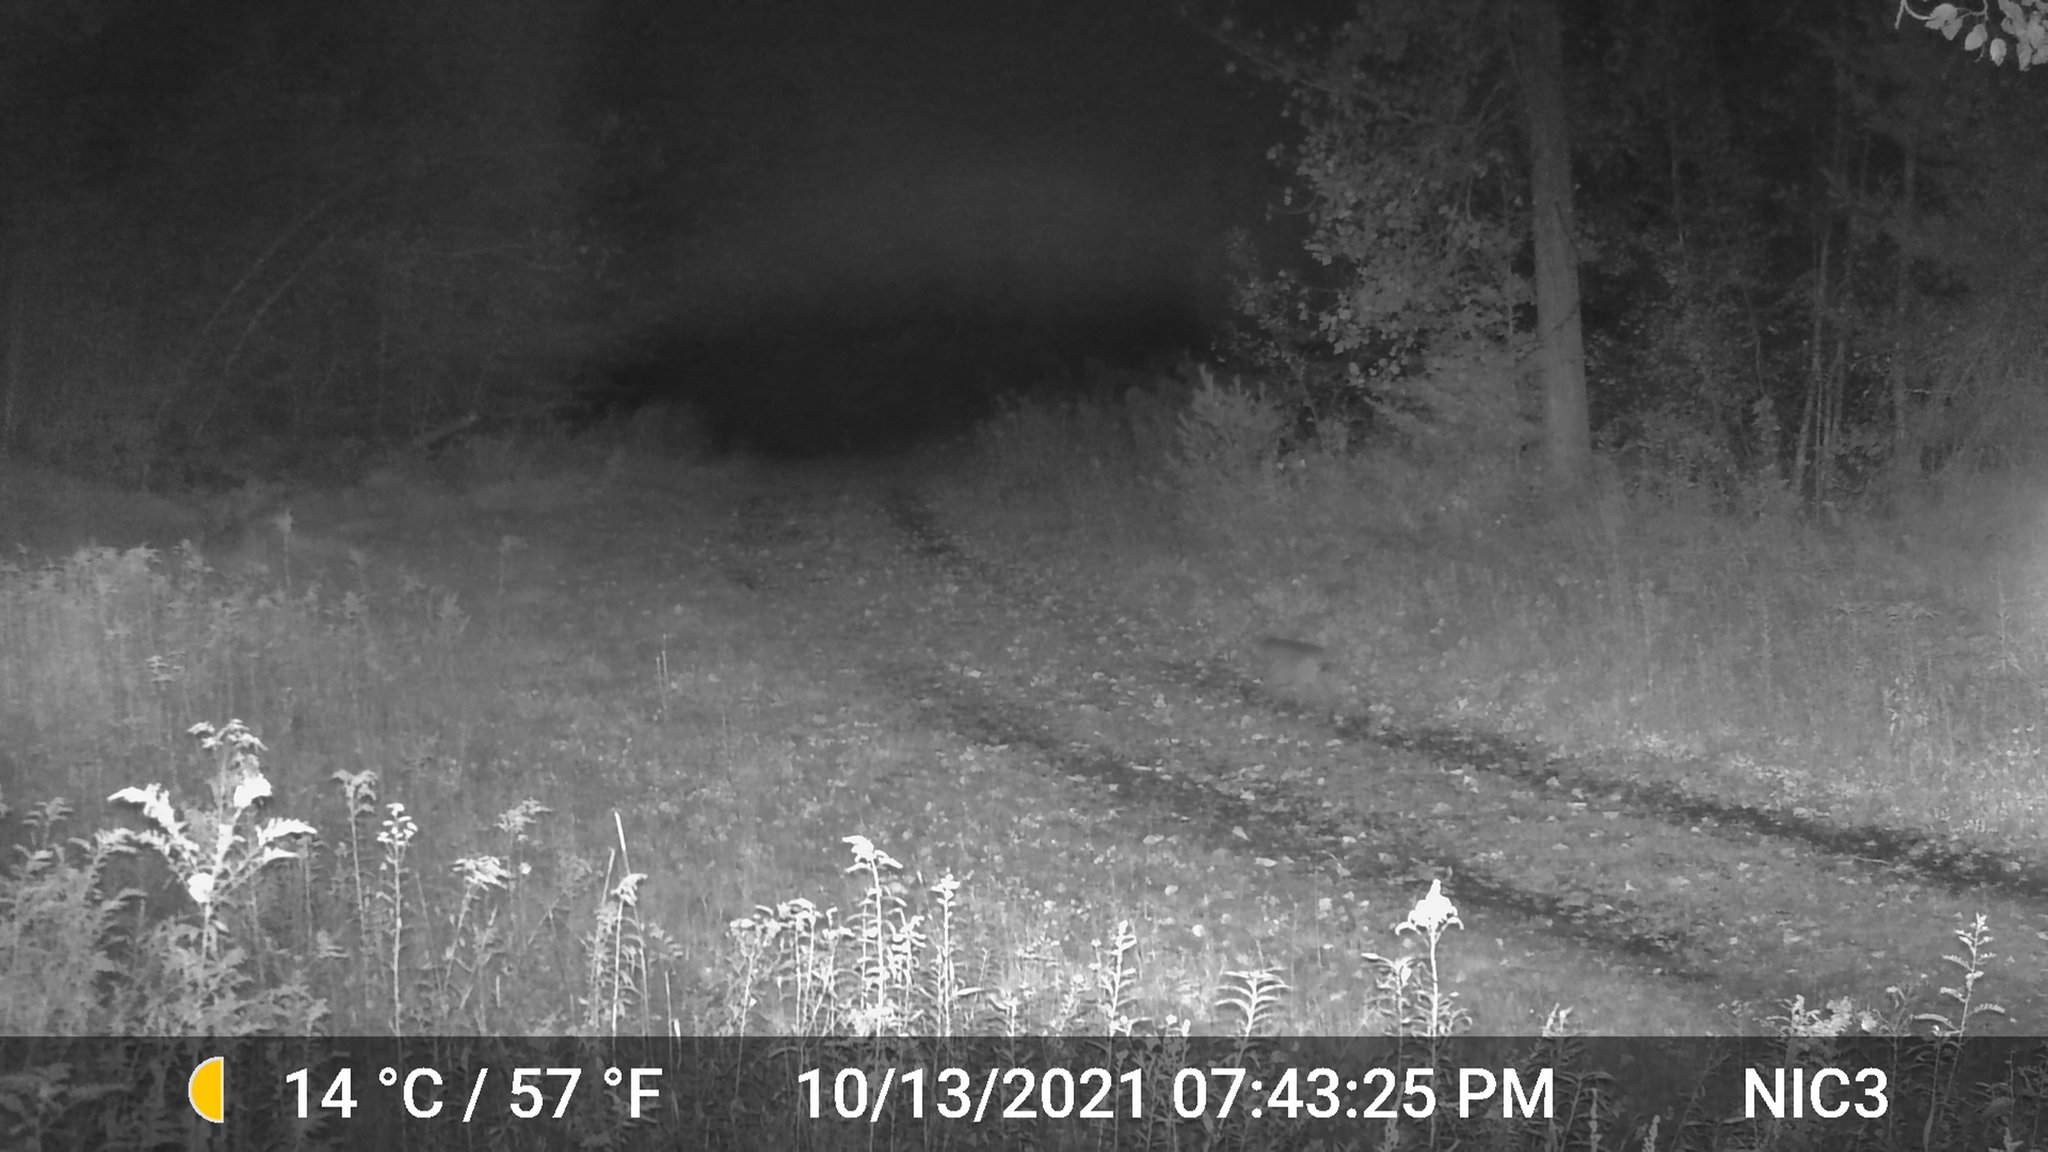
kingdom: Animalia
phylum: Chordata
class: Mammalia
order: Carnivora
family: Felidae
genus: Lynx
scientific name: Lynx rufus
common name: Bobcat
